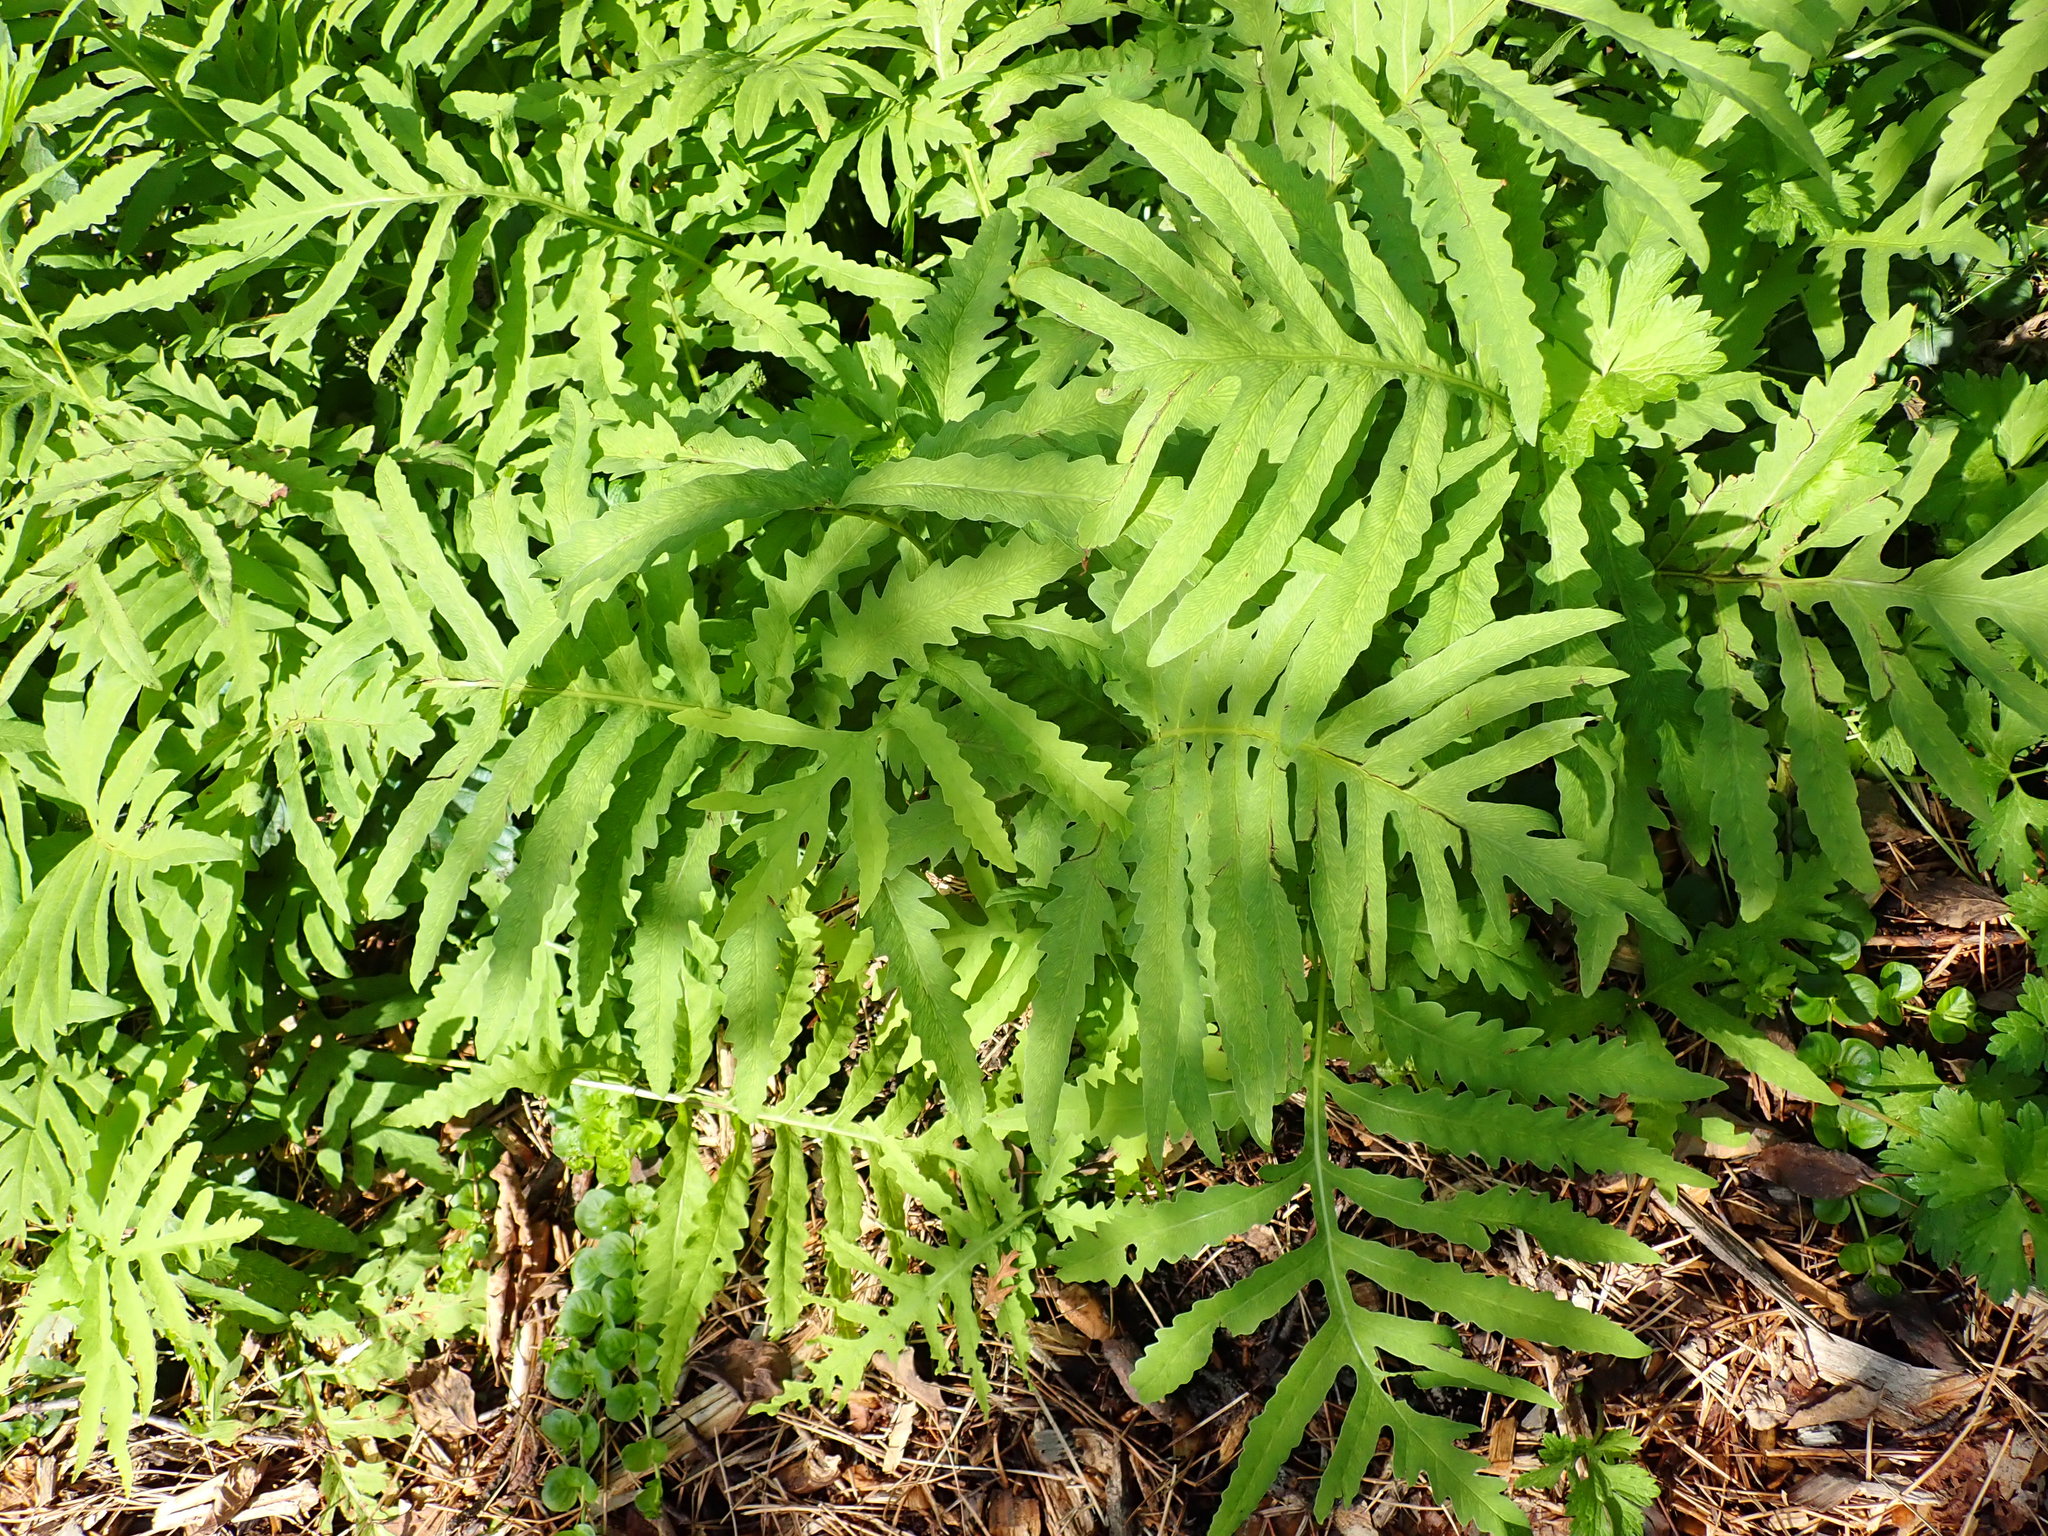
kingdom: Plantae
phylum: Tracheophyta
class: Polypodiopsida
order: Polypodiales
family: Onocleaceae
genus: Onoclea
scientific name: Onoclea sensibilis
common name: Sensitive fern
